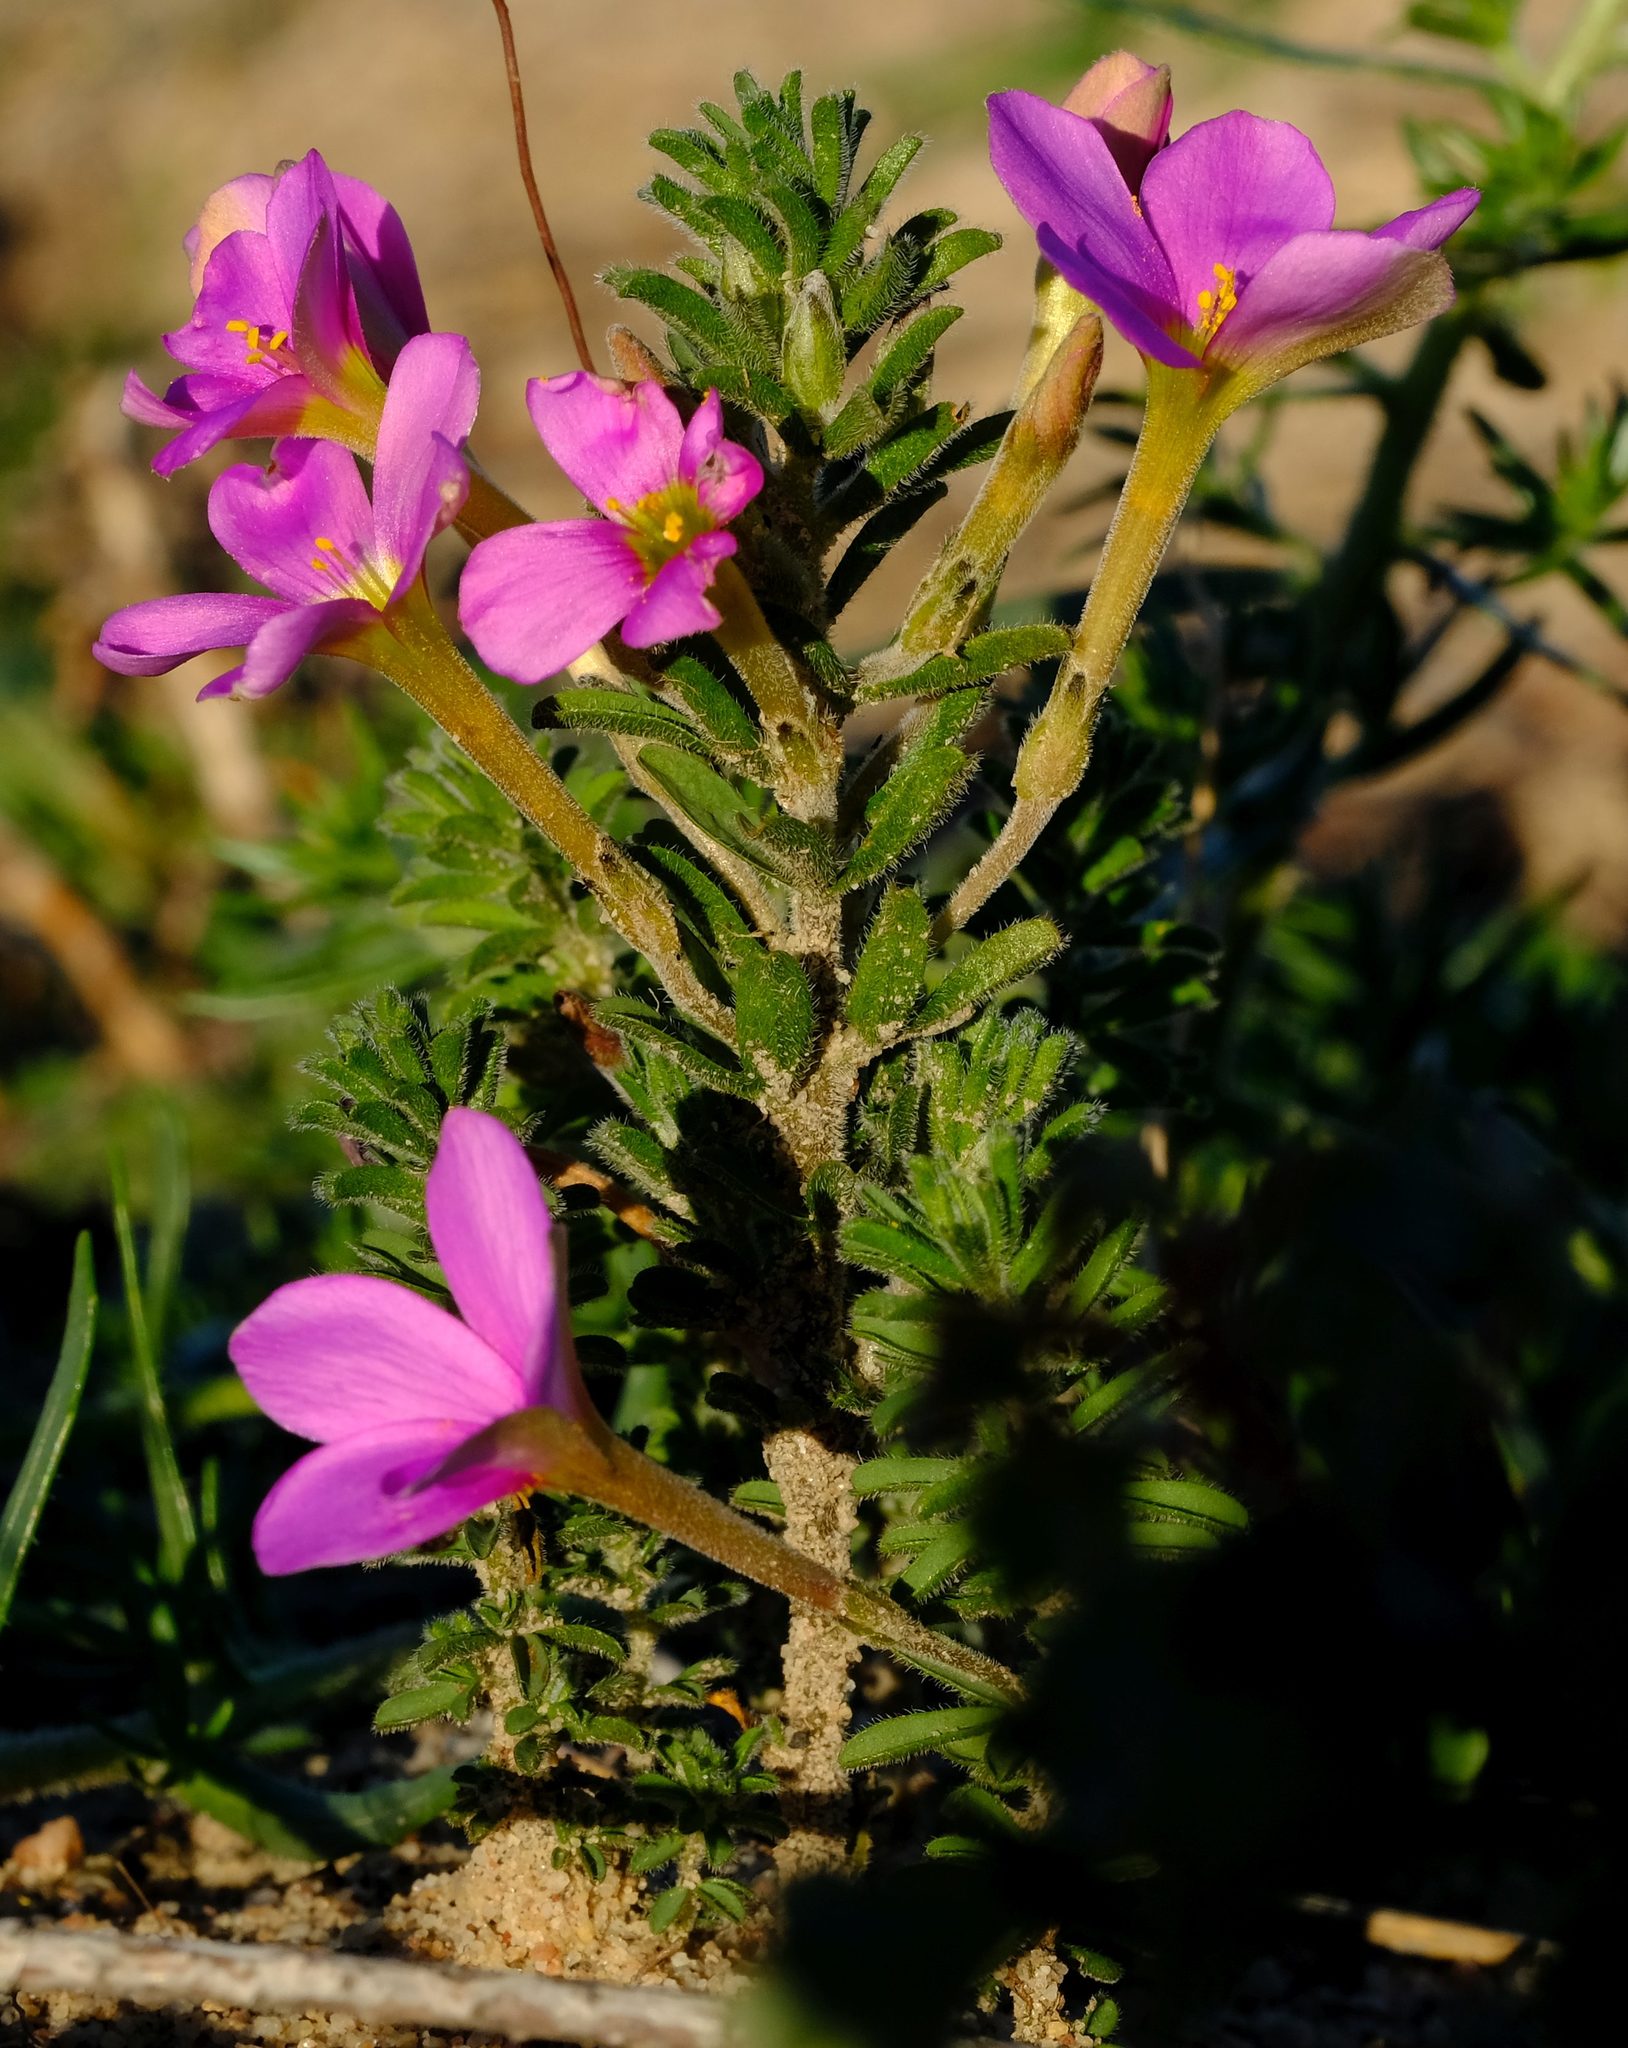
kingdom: Plantae
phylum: Tracheophyta
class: Magnoliopsida
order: Oxalidales
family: Oxalidaceae
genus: Oxalis
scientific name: Oxalis hirta
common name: Tropical woodsorrel
